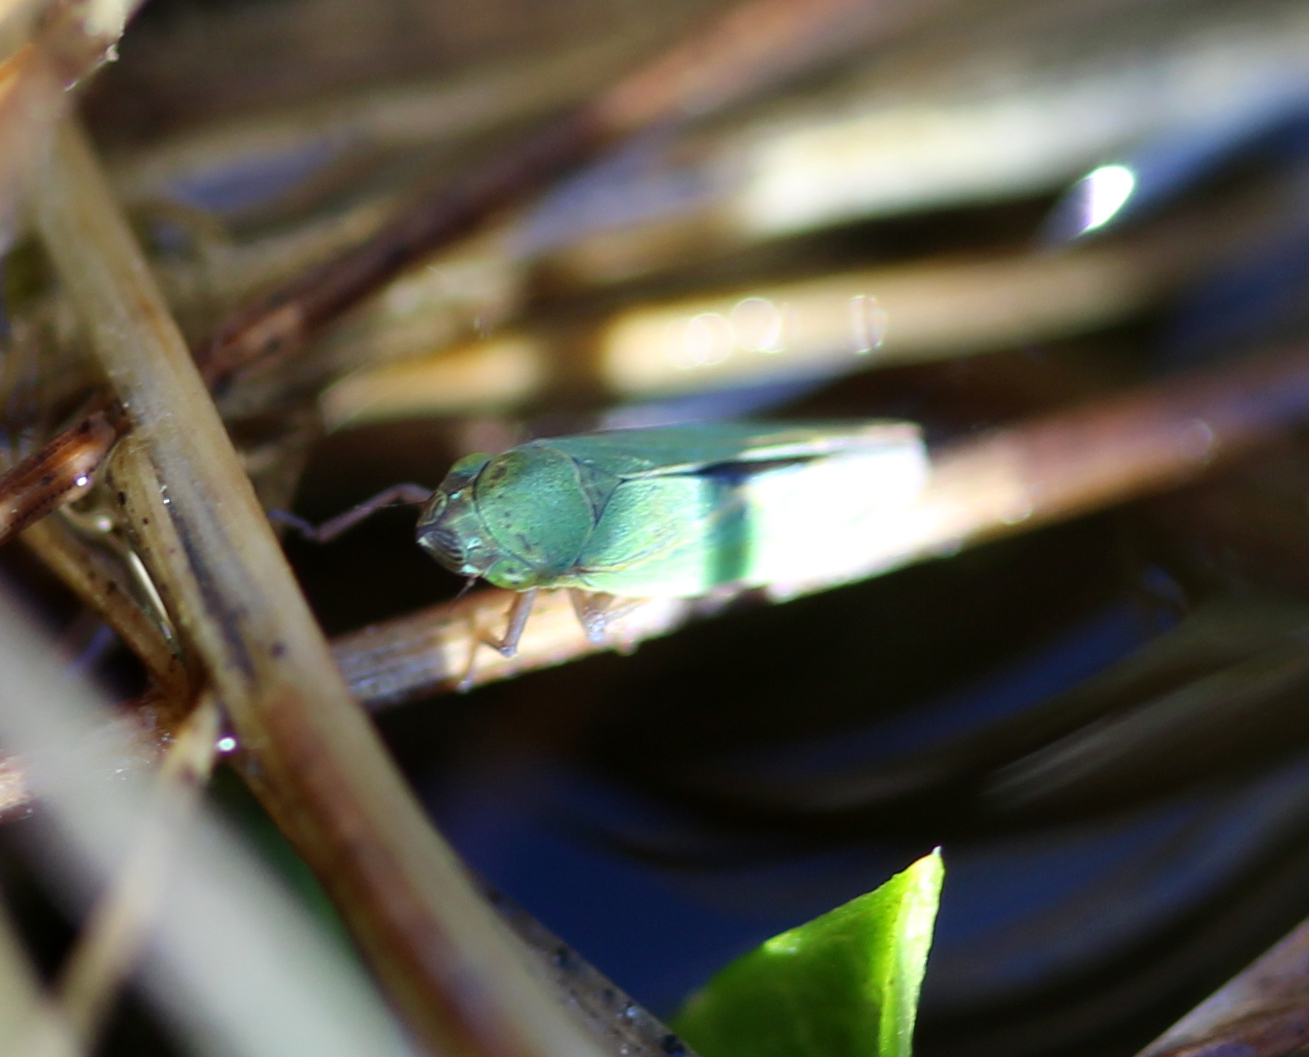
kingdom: Animalia
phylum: Arthropoda
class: Insecta
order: Hemiptera
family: Cicadellidae
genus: Helochara
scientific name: Helochara communis
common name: Bog leafhopper
